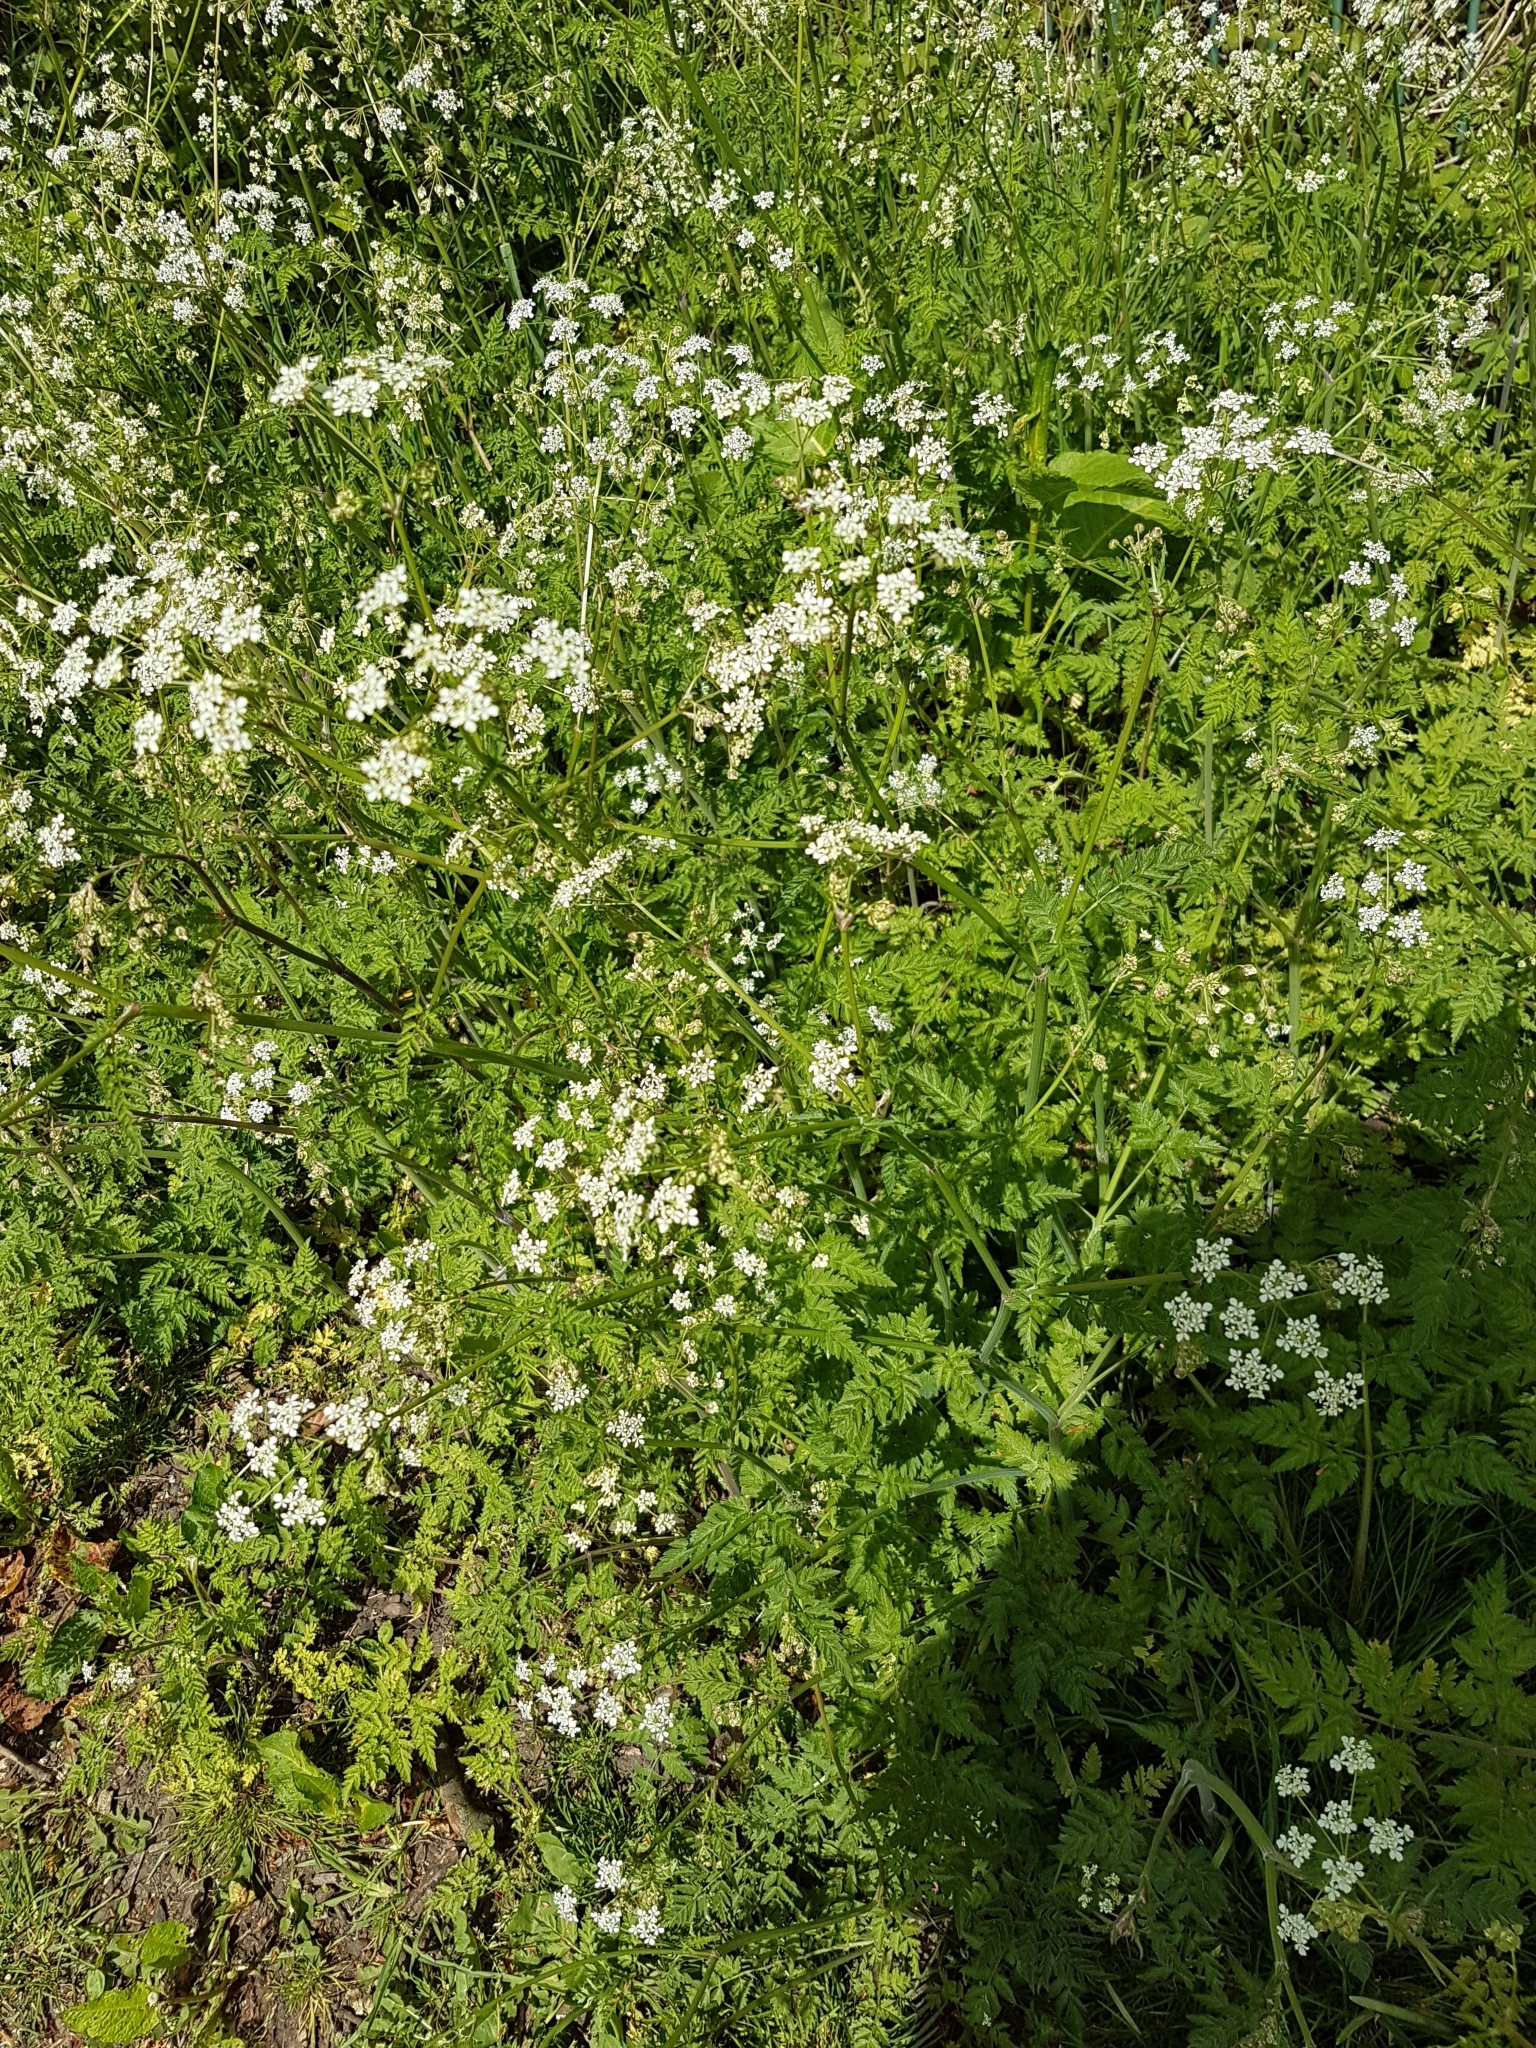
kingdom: Plantae
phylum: Tracheophyta
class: Magnoliopsida
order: Apiales
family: Apiaceae
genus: Anthriscus
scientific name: Anthriscus sylvestris
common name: Cow parsley
